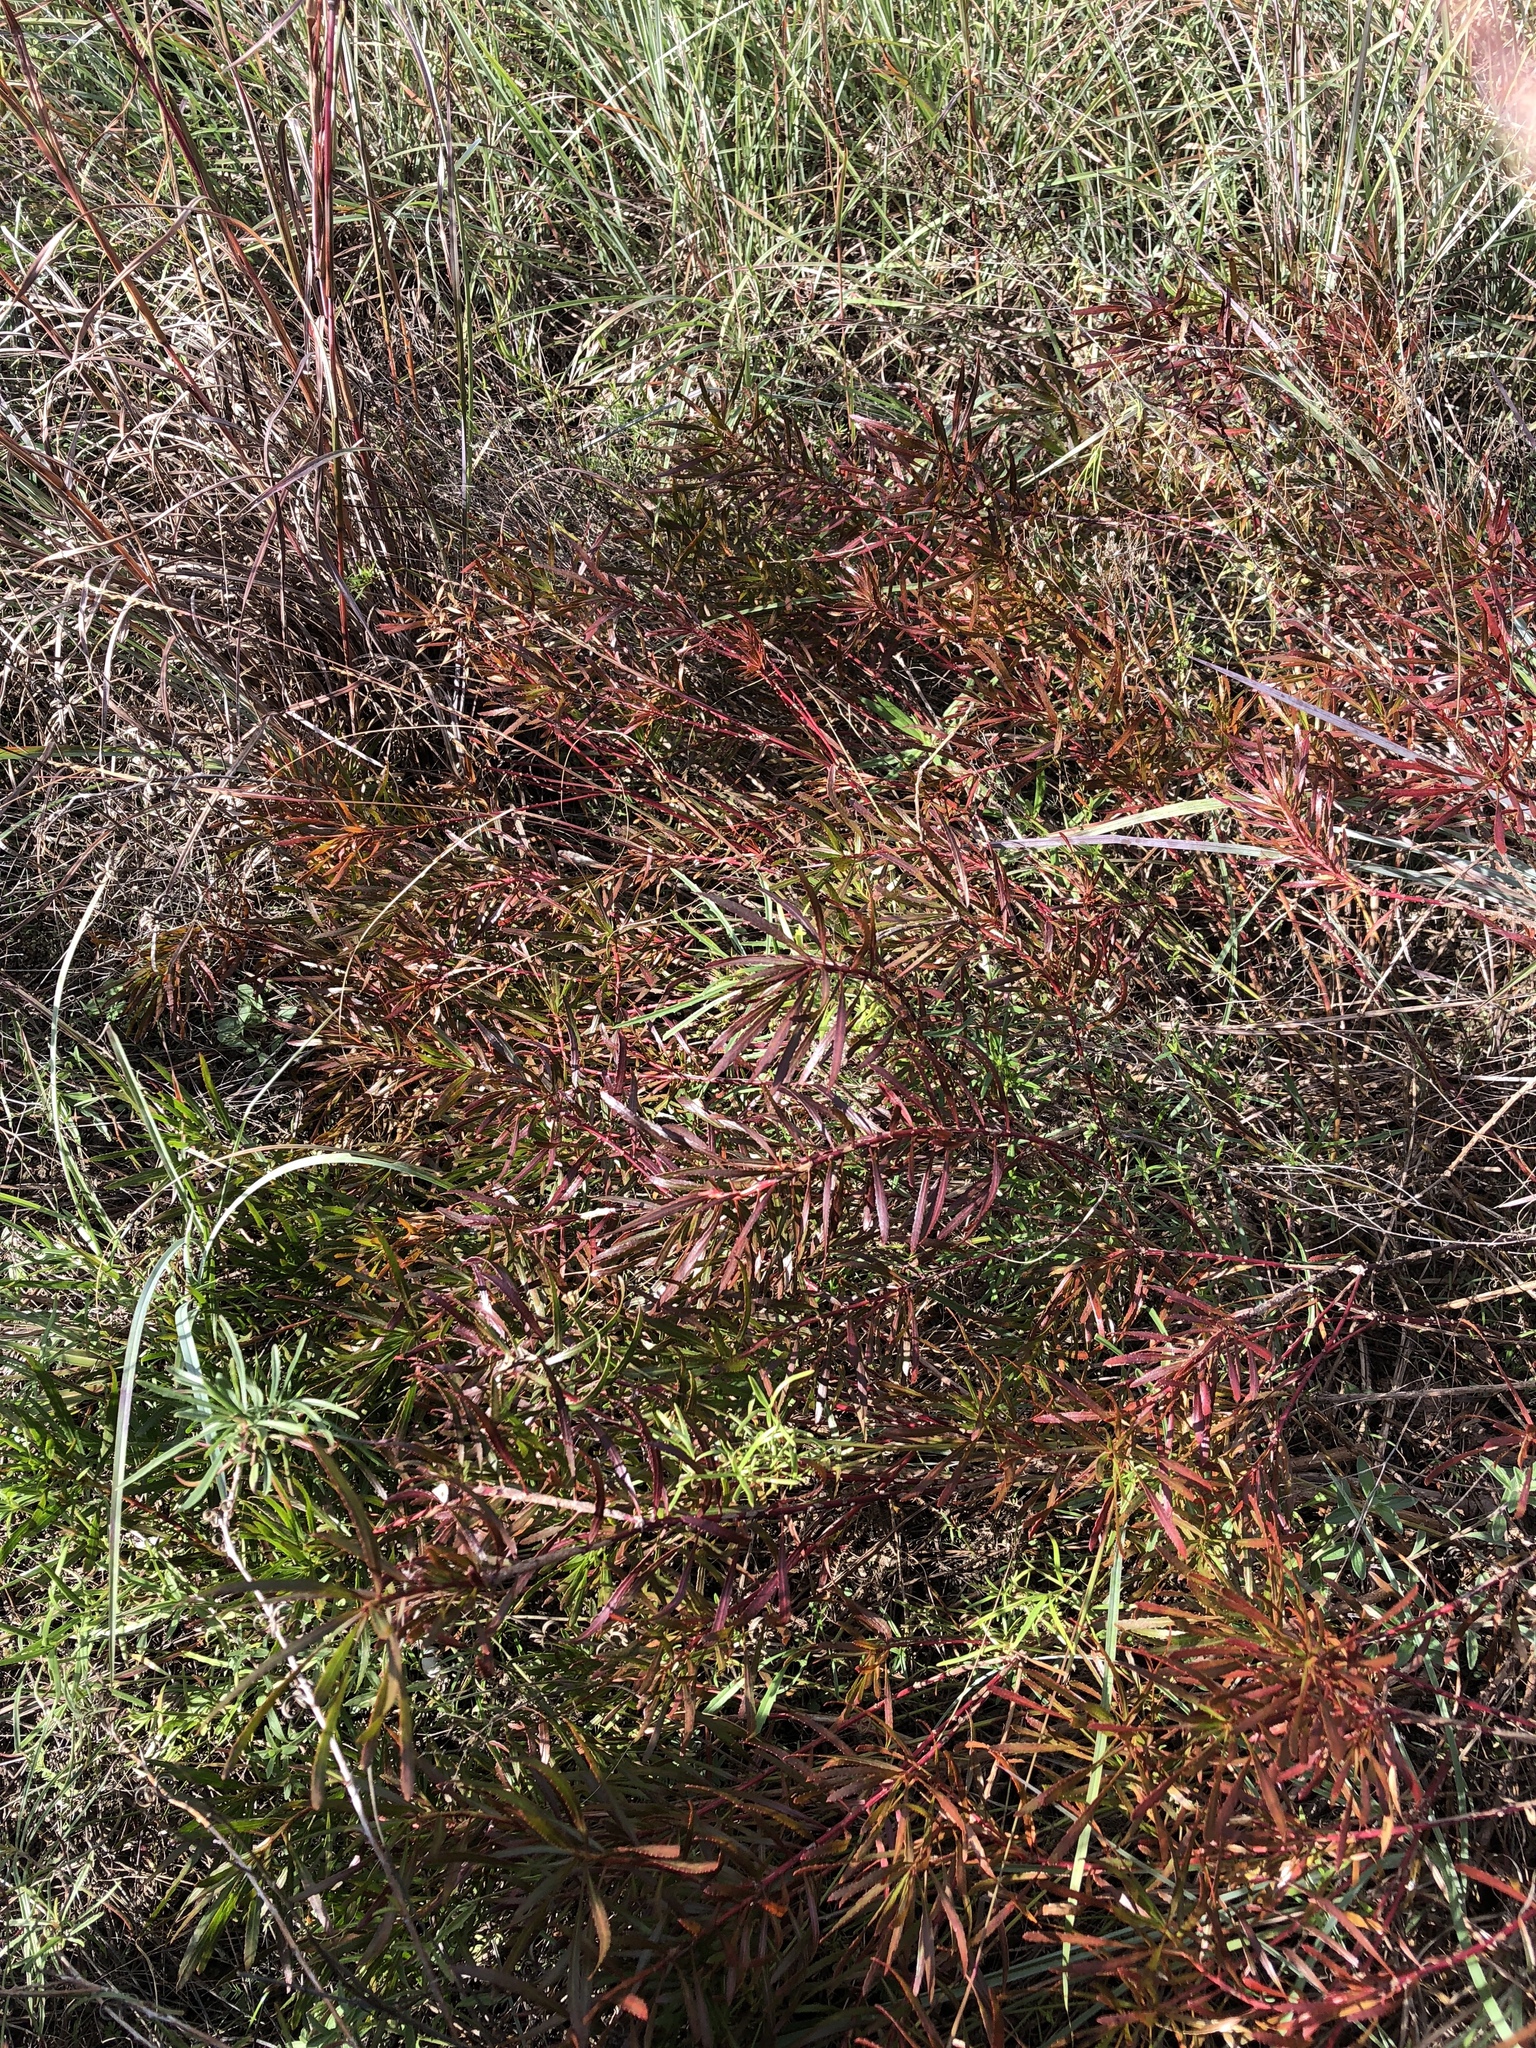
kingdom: Plantae
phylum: Tracheophyta
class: Magnoliopsida
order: Malpighiales
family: Euphorbiaceae
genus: Stillingia
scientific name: Stillingia texana
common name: Texas stillingia
